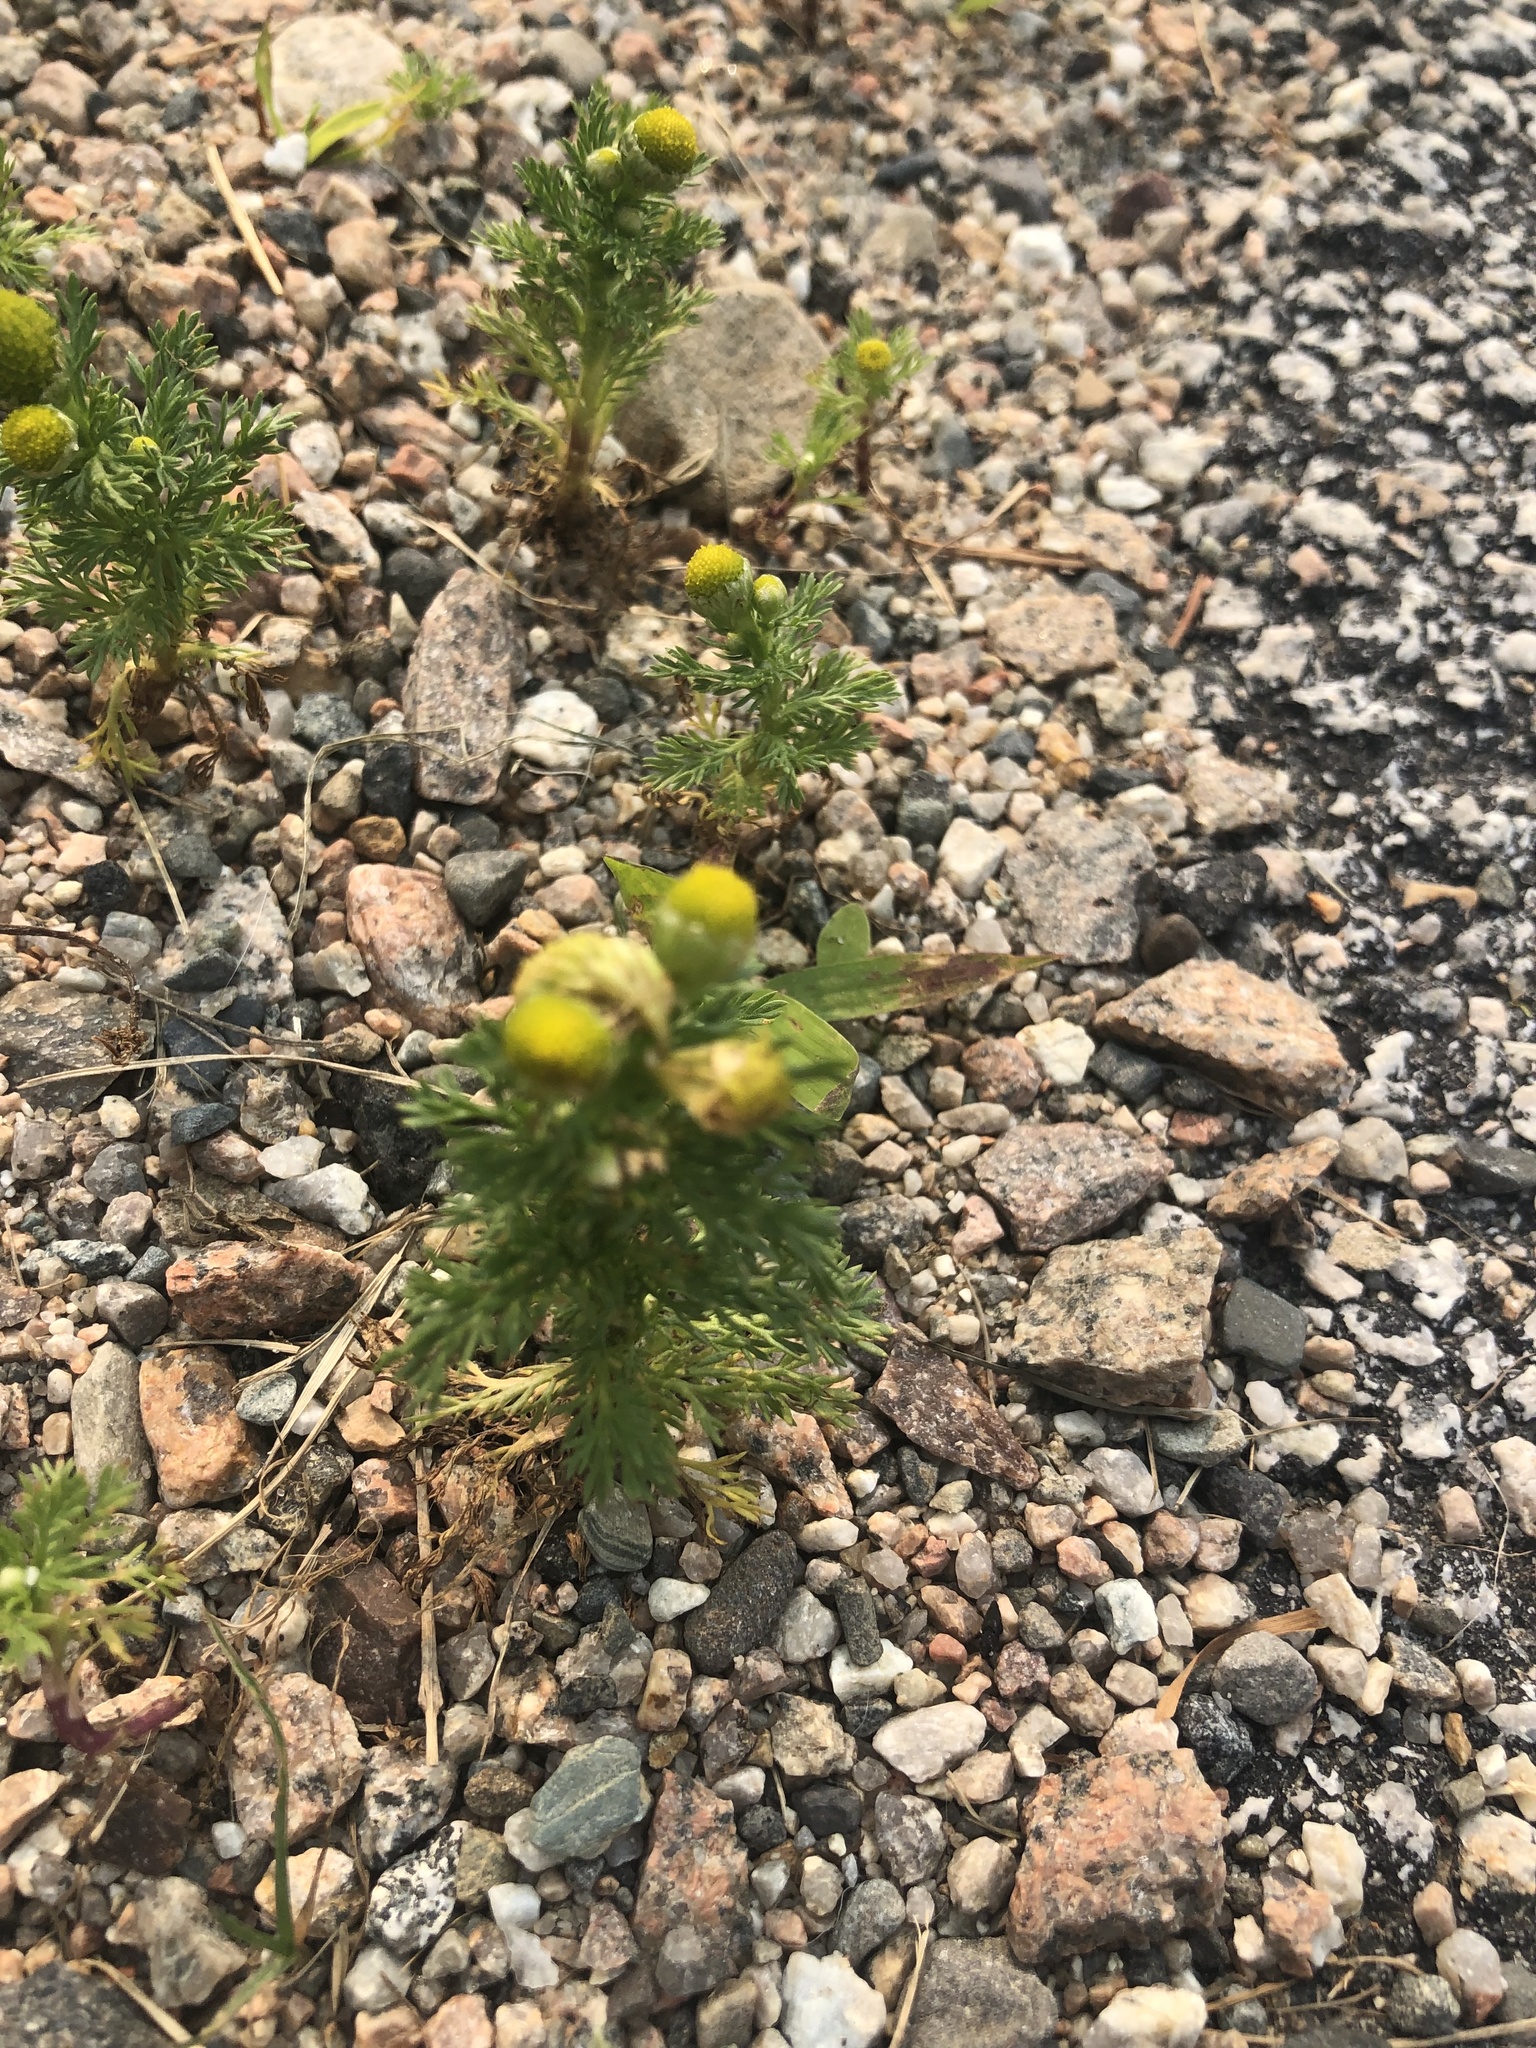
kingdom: Plantae
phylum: Tracheophyta
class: Magnoliopsida
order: Asterales
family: Asteraceae
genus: Matricaria
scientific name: Matricaria discoidea
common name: Disc mayweed
